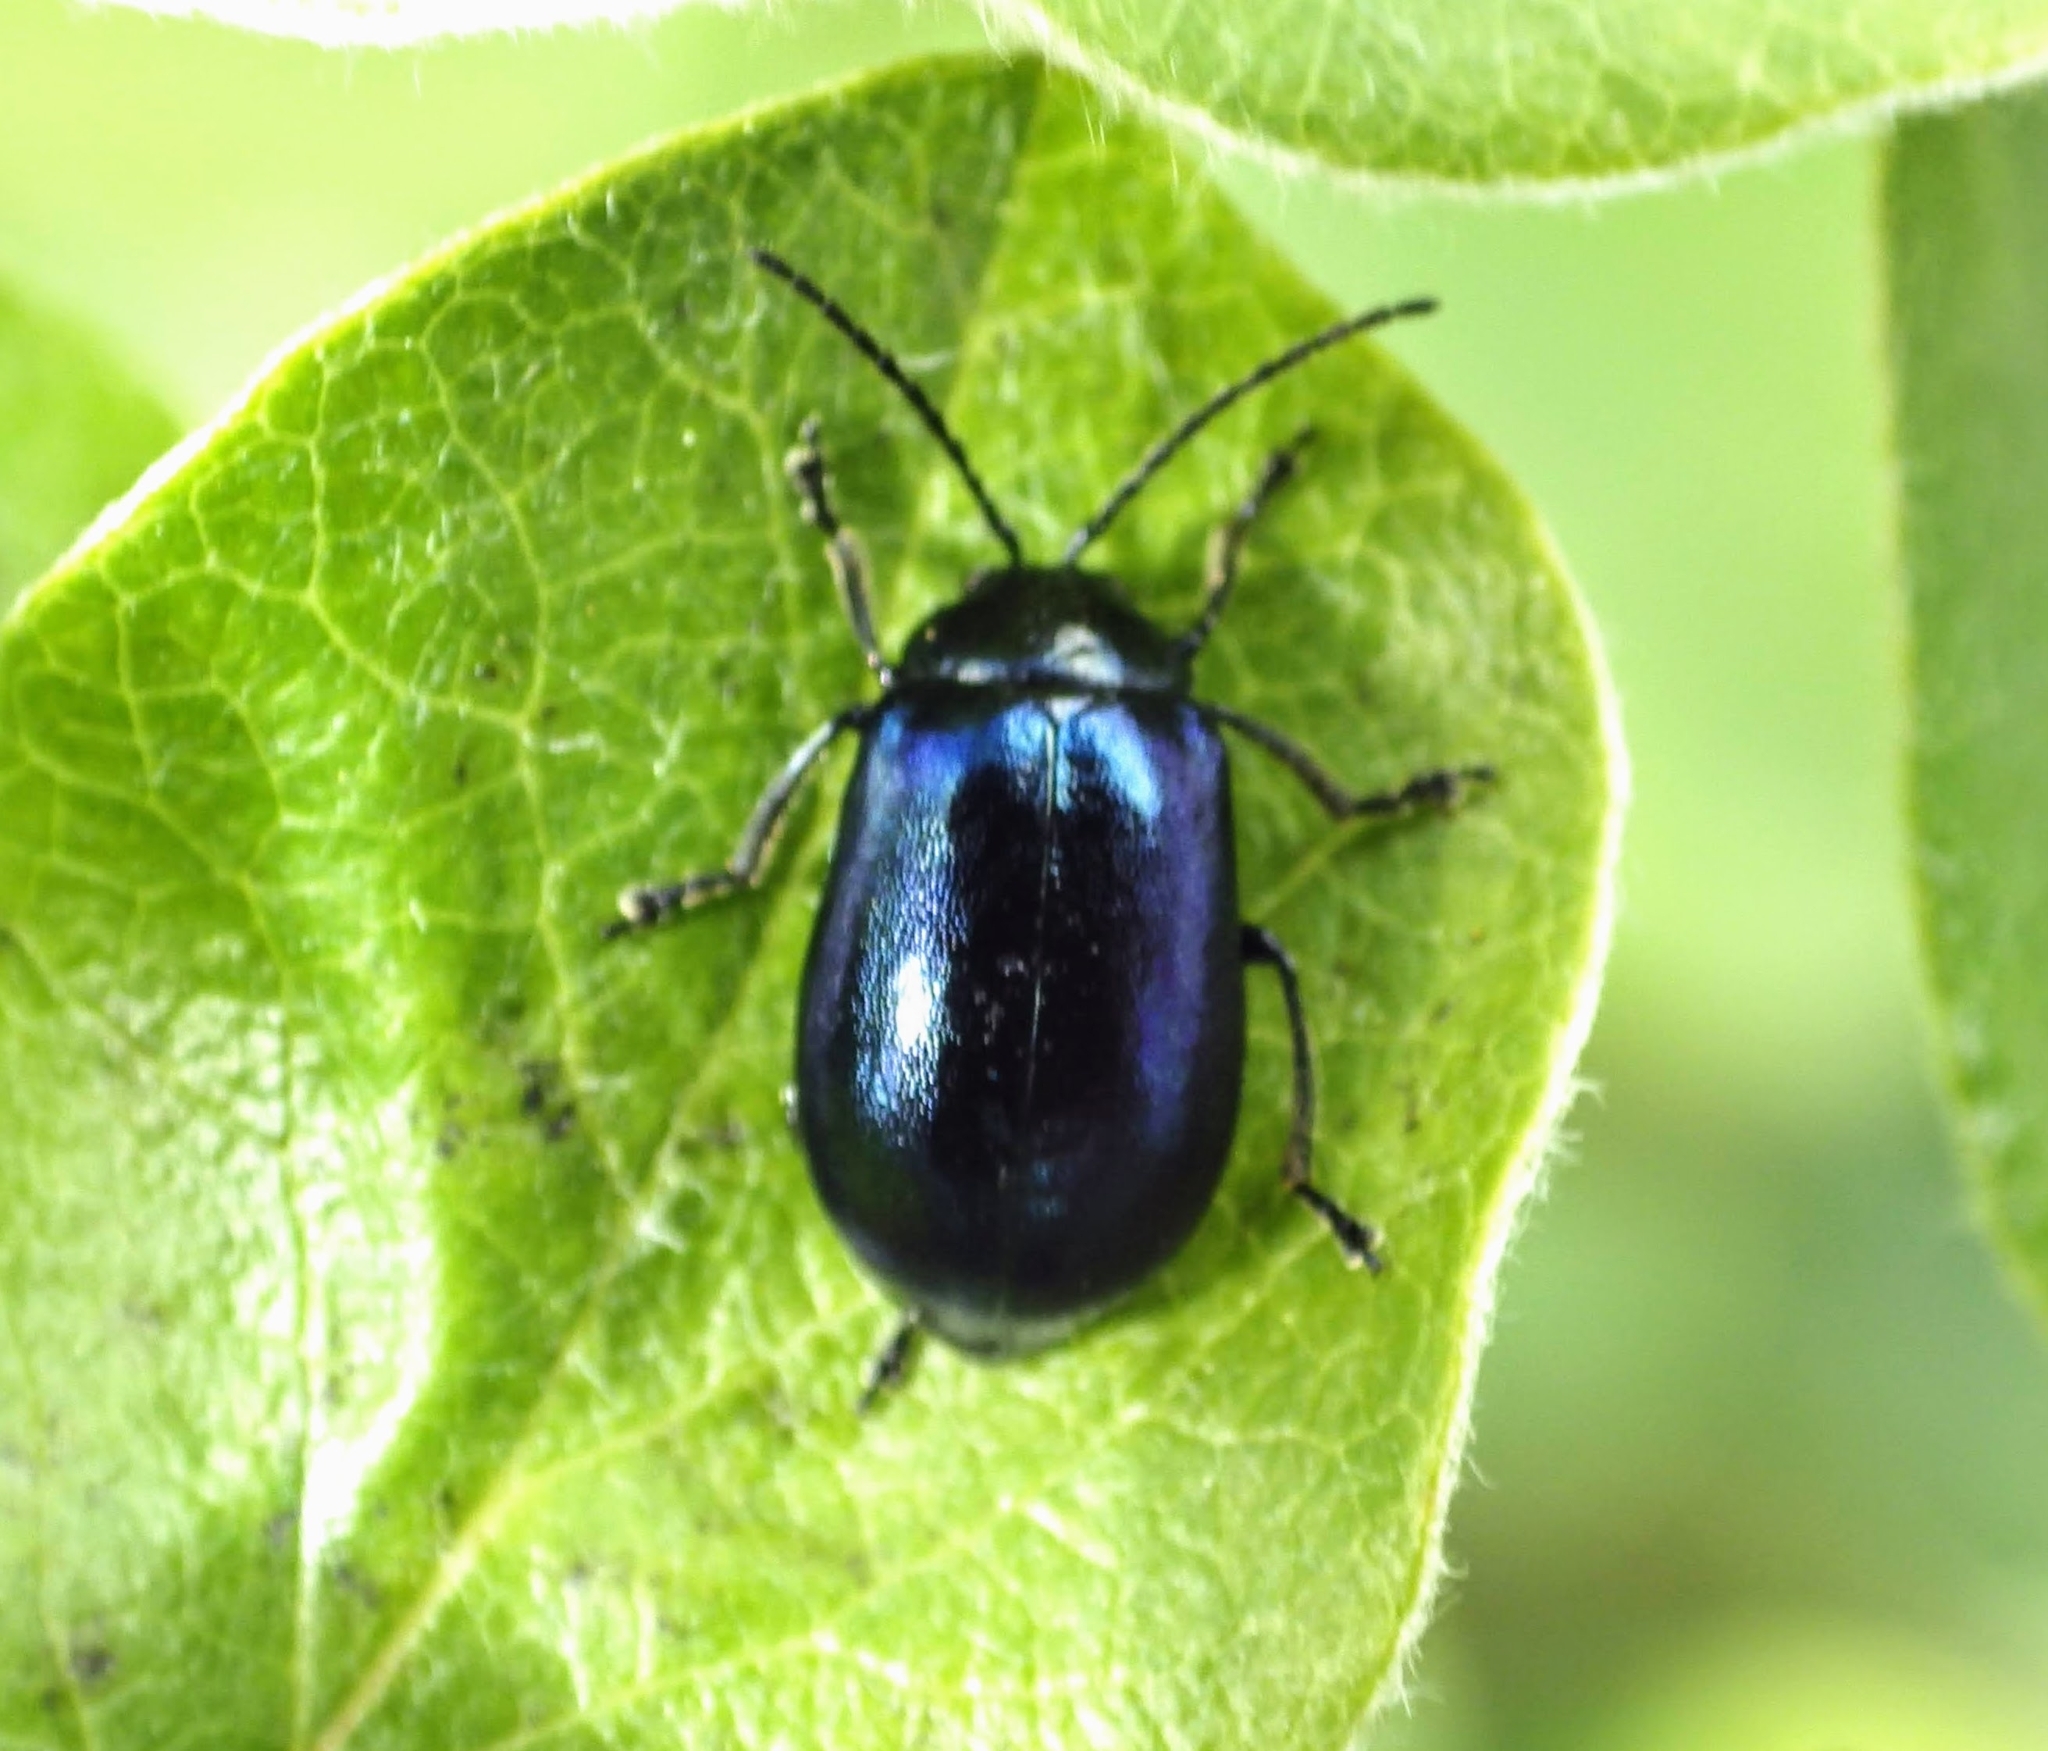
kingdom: Animalia
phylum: Arthropoda
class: Insecta
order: Coleoptera
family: Chrysomelidae
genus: Agelastica
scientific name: Agelastica alni
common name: Alder leaf beetle
